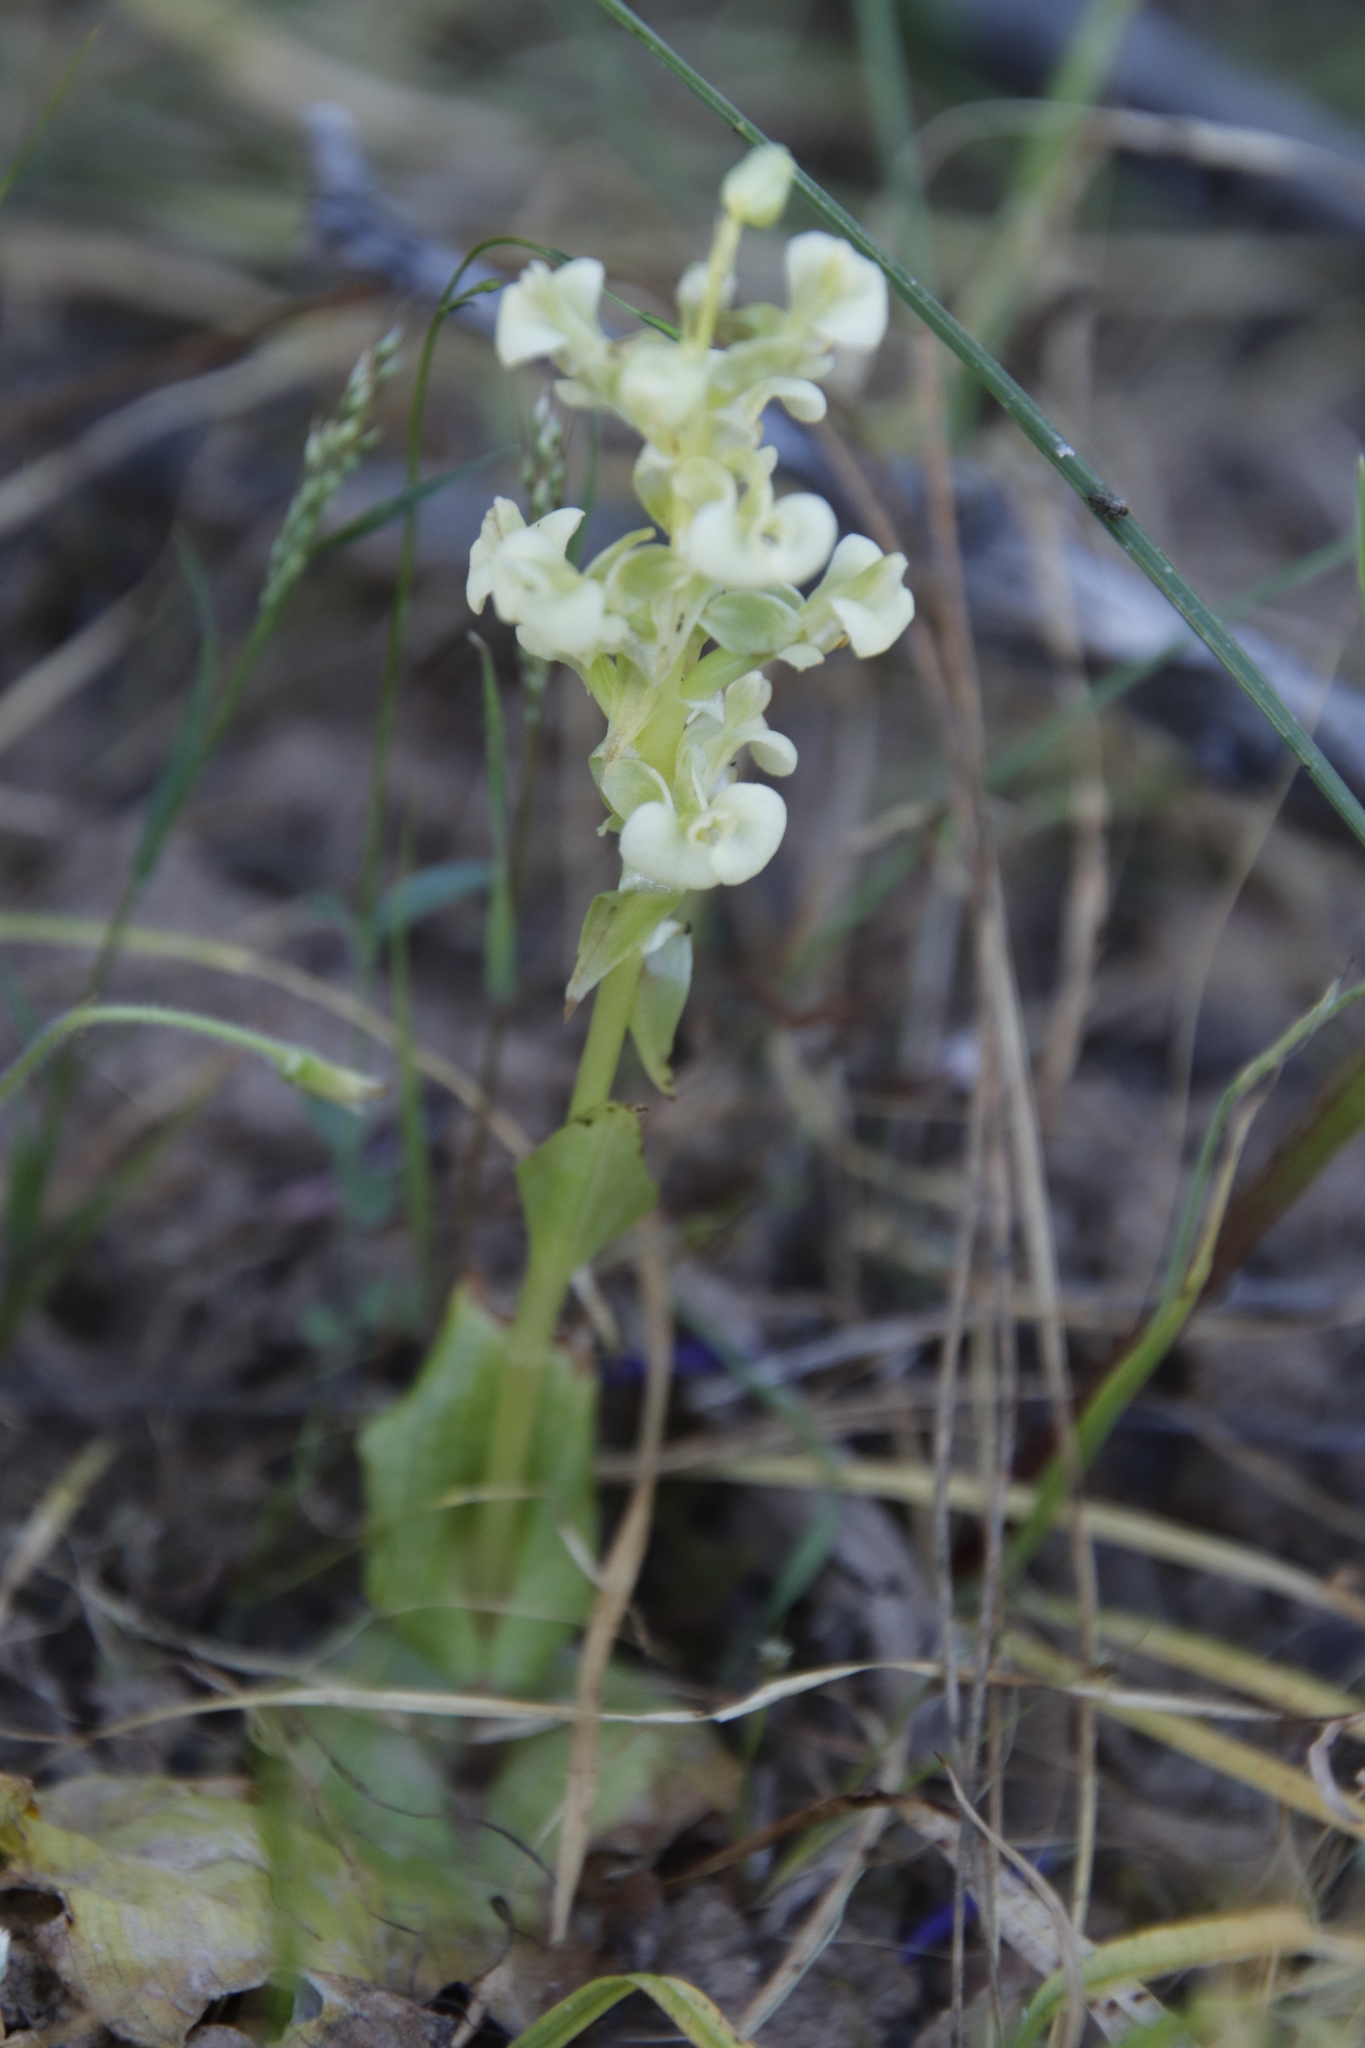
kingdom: Plantae
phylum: Tracheophyta
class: Liliopsida
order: Asparagales
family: Orchidaceae
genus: Pterygodium
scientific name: Pterygodium schelpei
